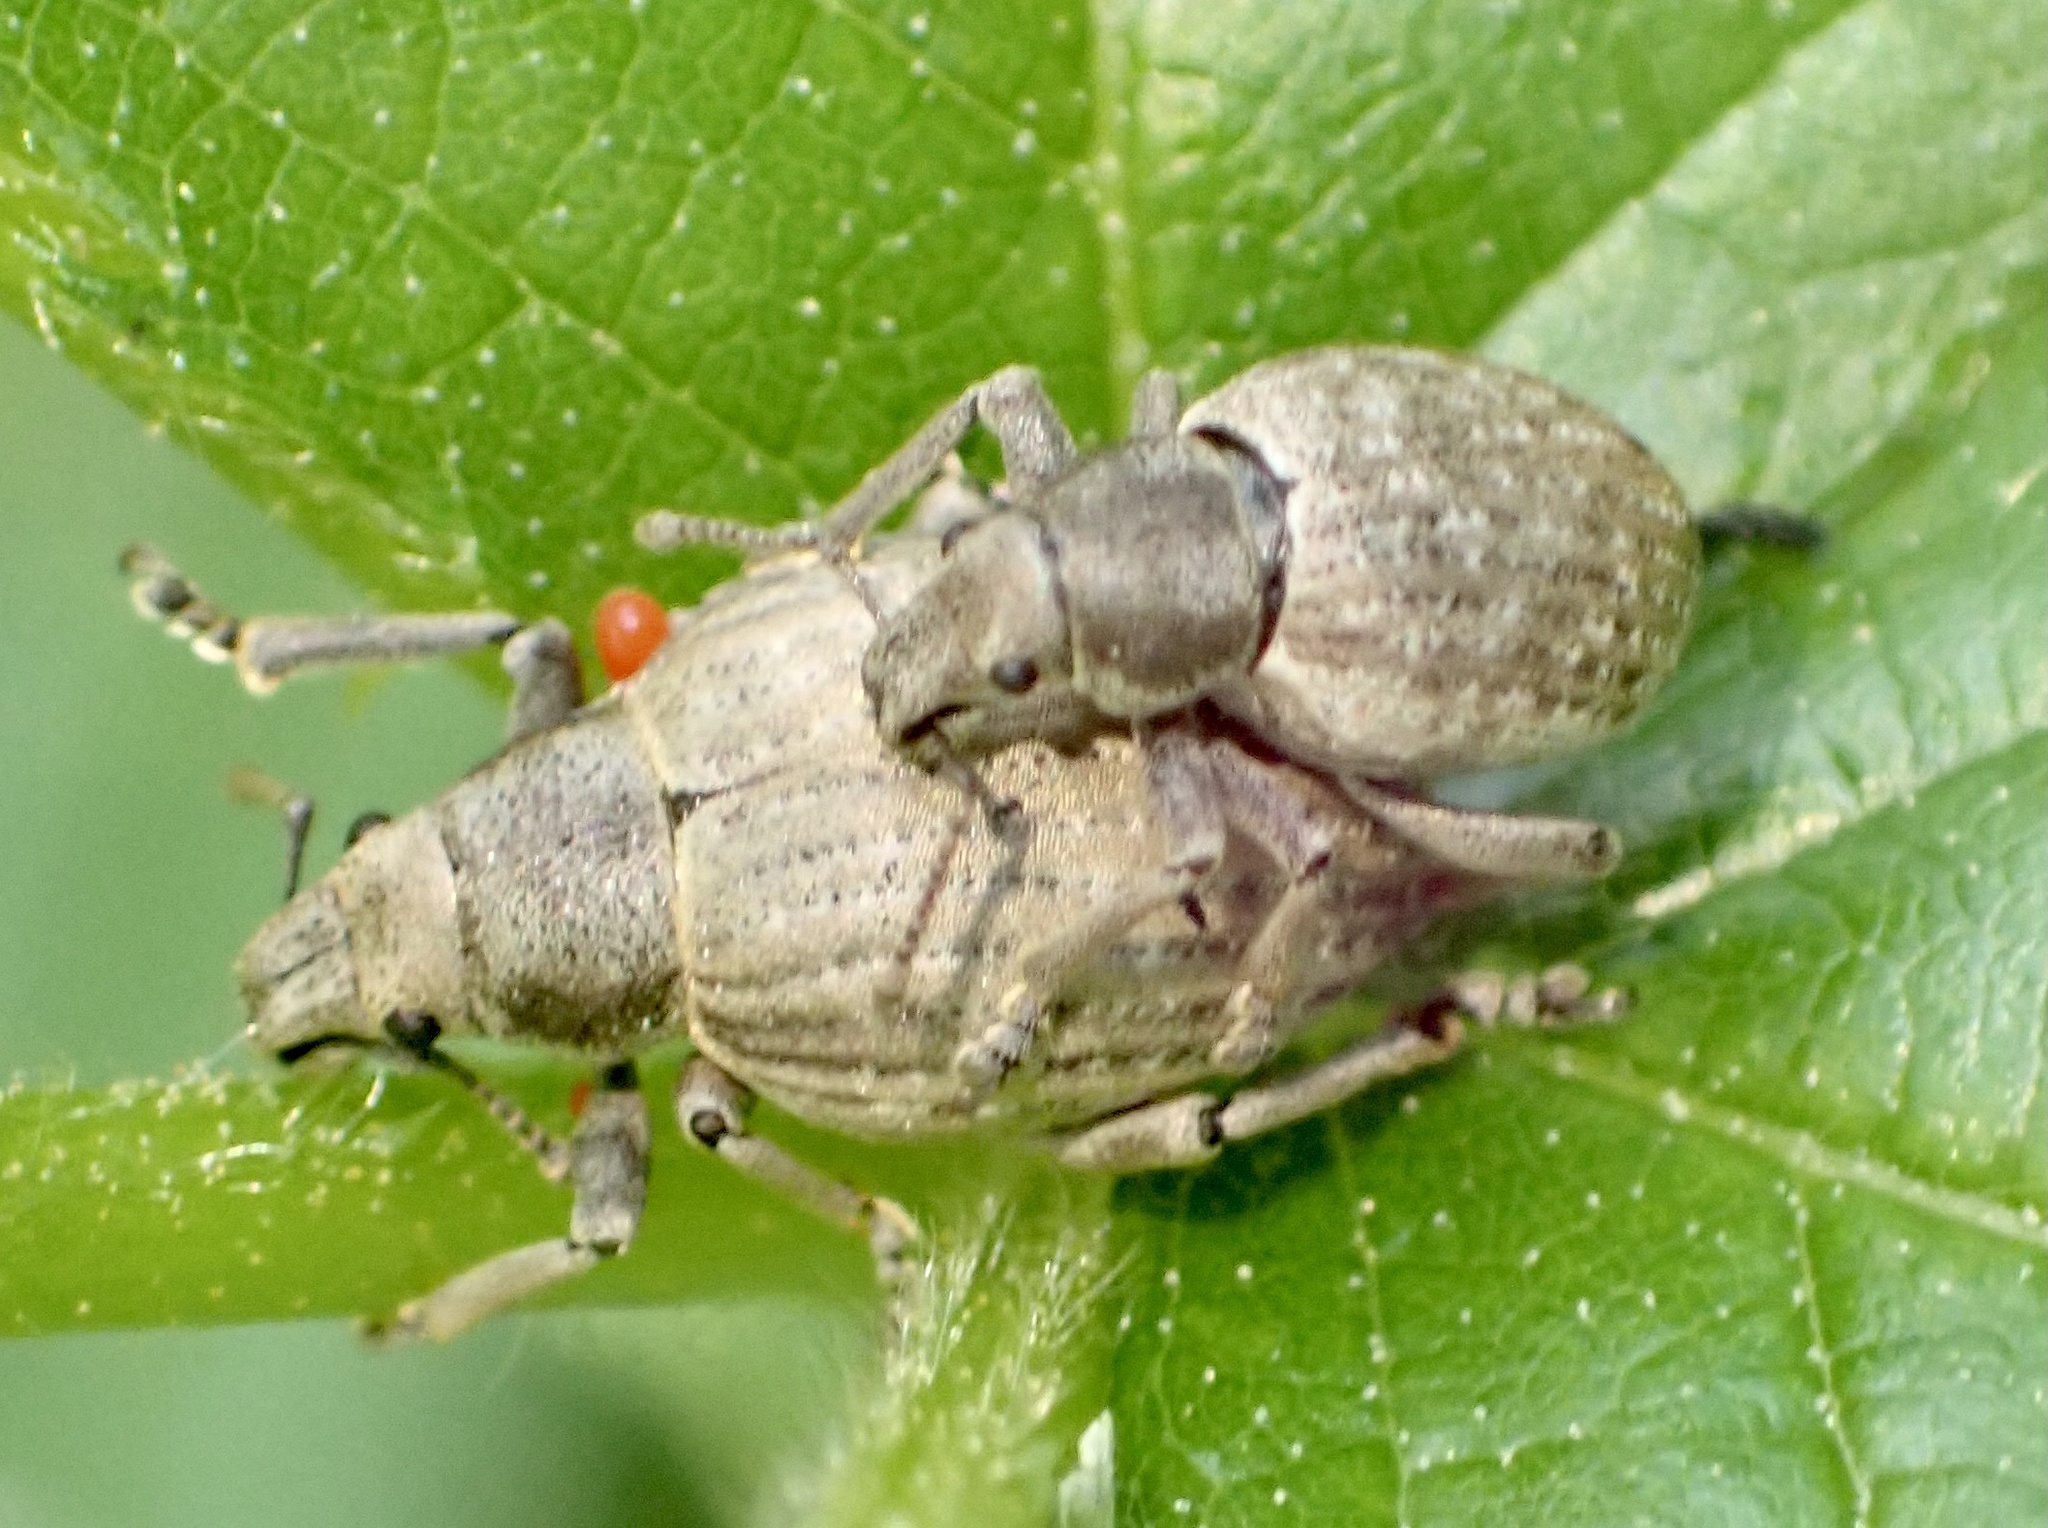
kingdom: Animalia
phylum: Arthropoda
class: Insecta
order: Coleoptera
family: Curculionidae
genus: Attactagenus
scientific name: Attactagenus plumbeus
